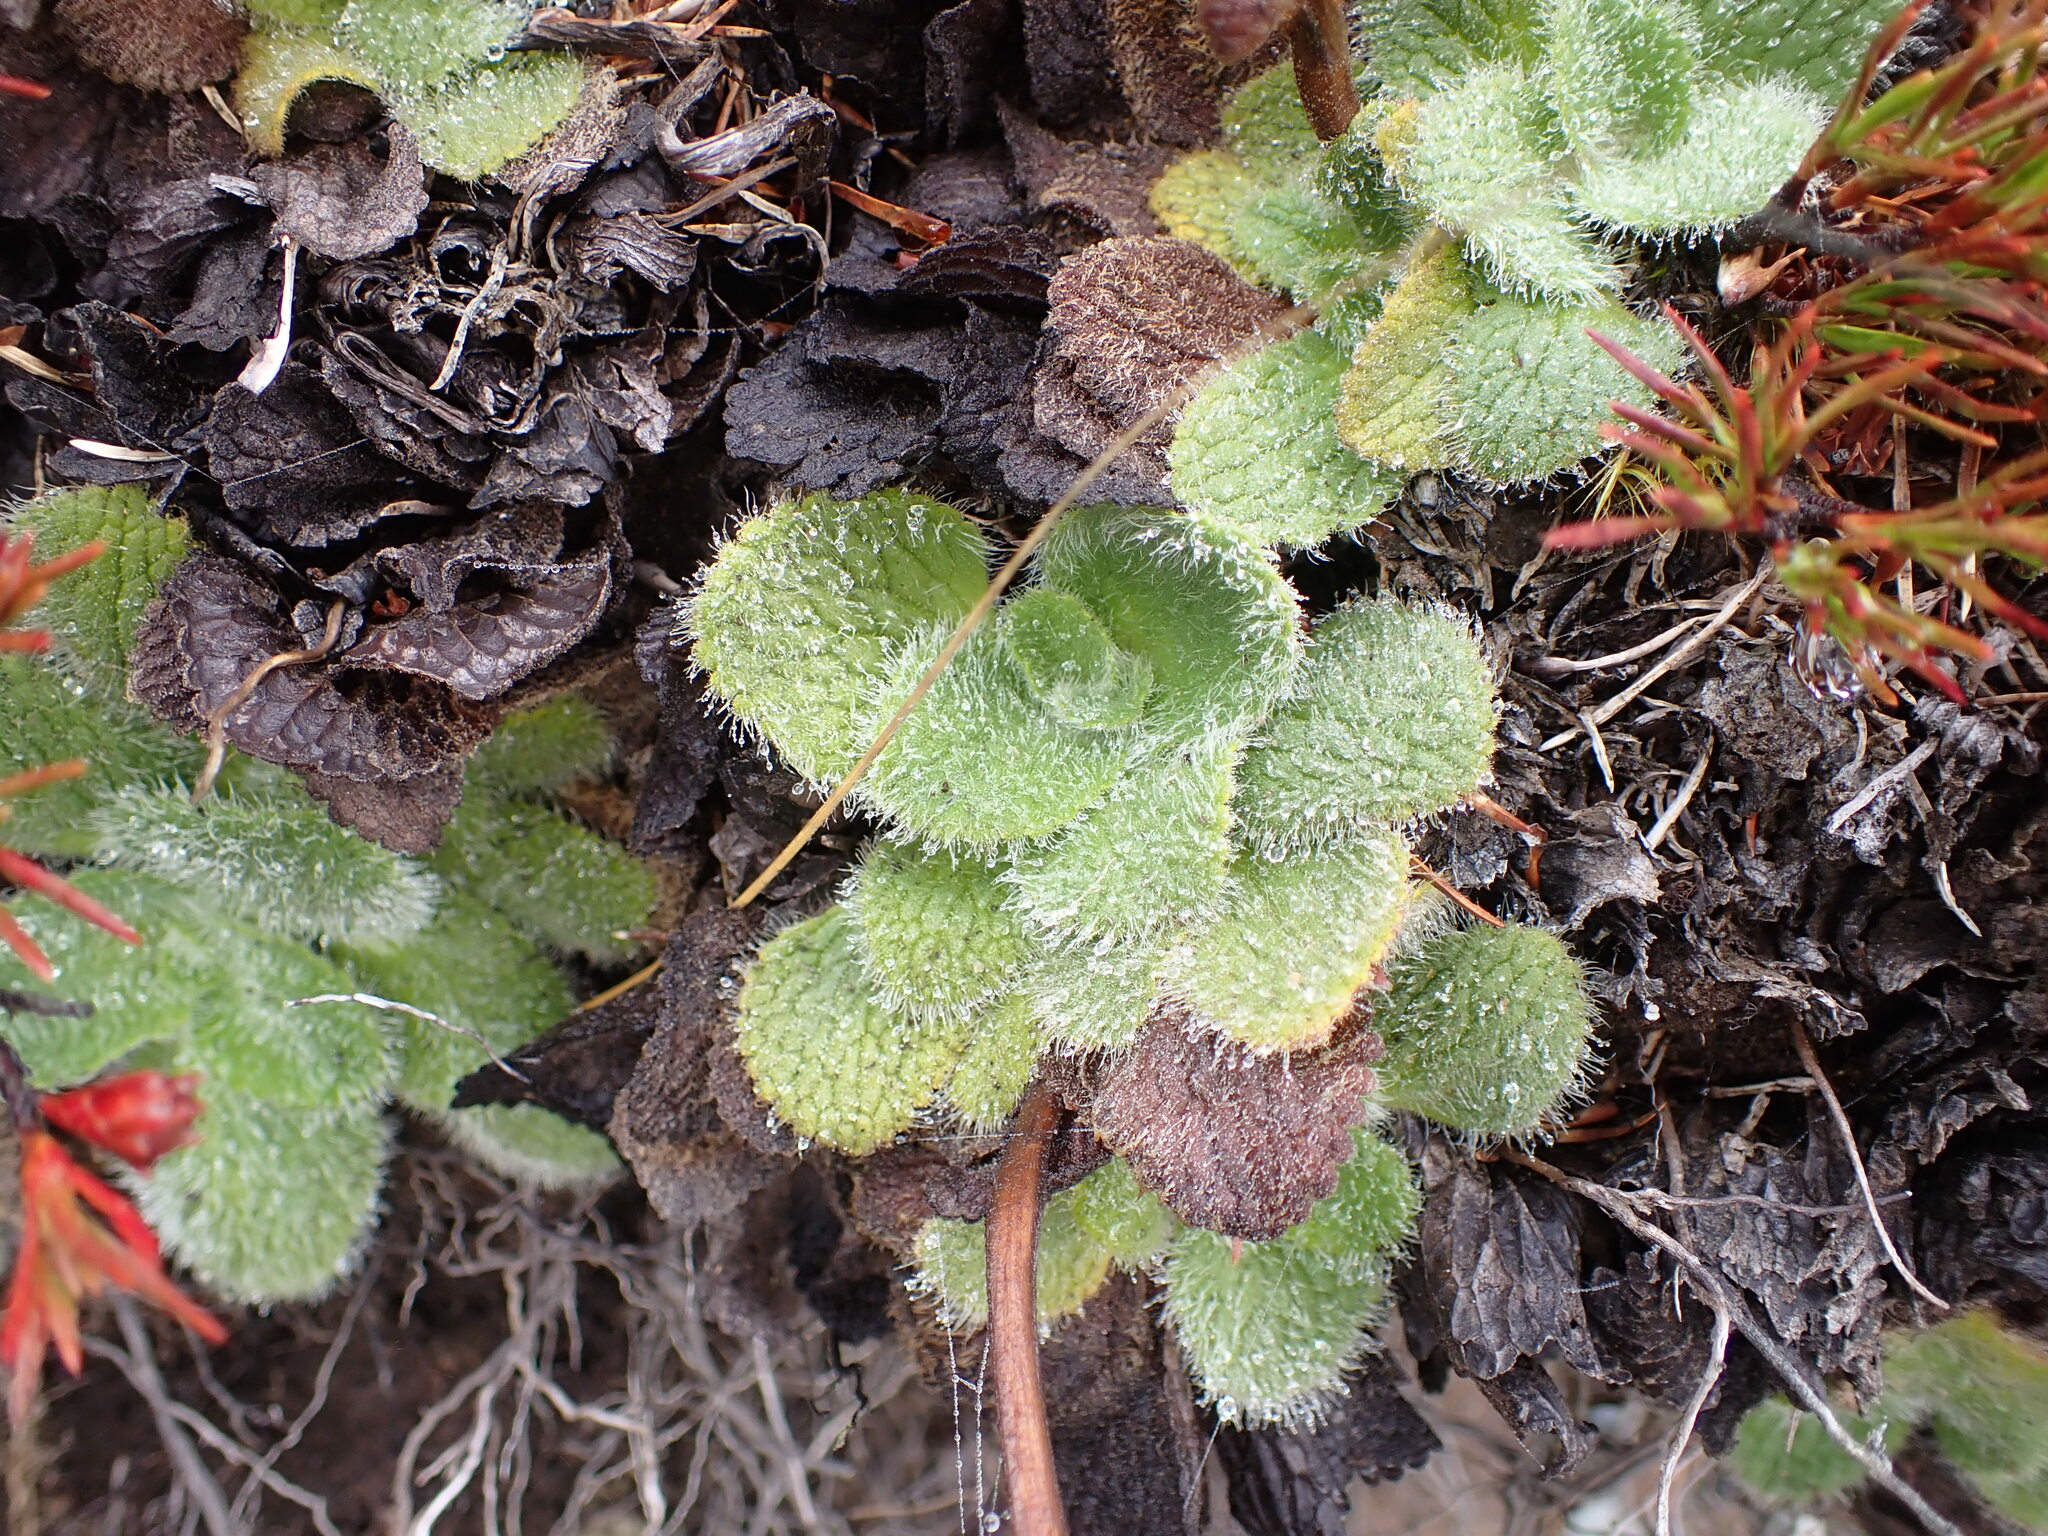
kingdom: Plantae
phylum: Tracheophyta
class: Magnoliopsida
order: Lamiales
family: Plantaginaceae
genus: Ourisia
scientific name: Ourisia sessilifolia
